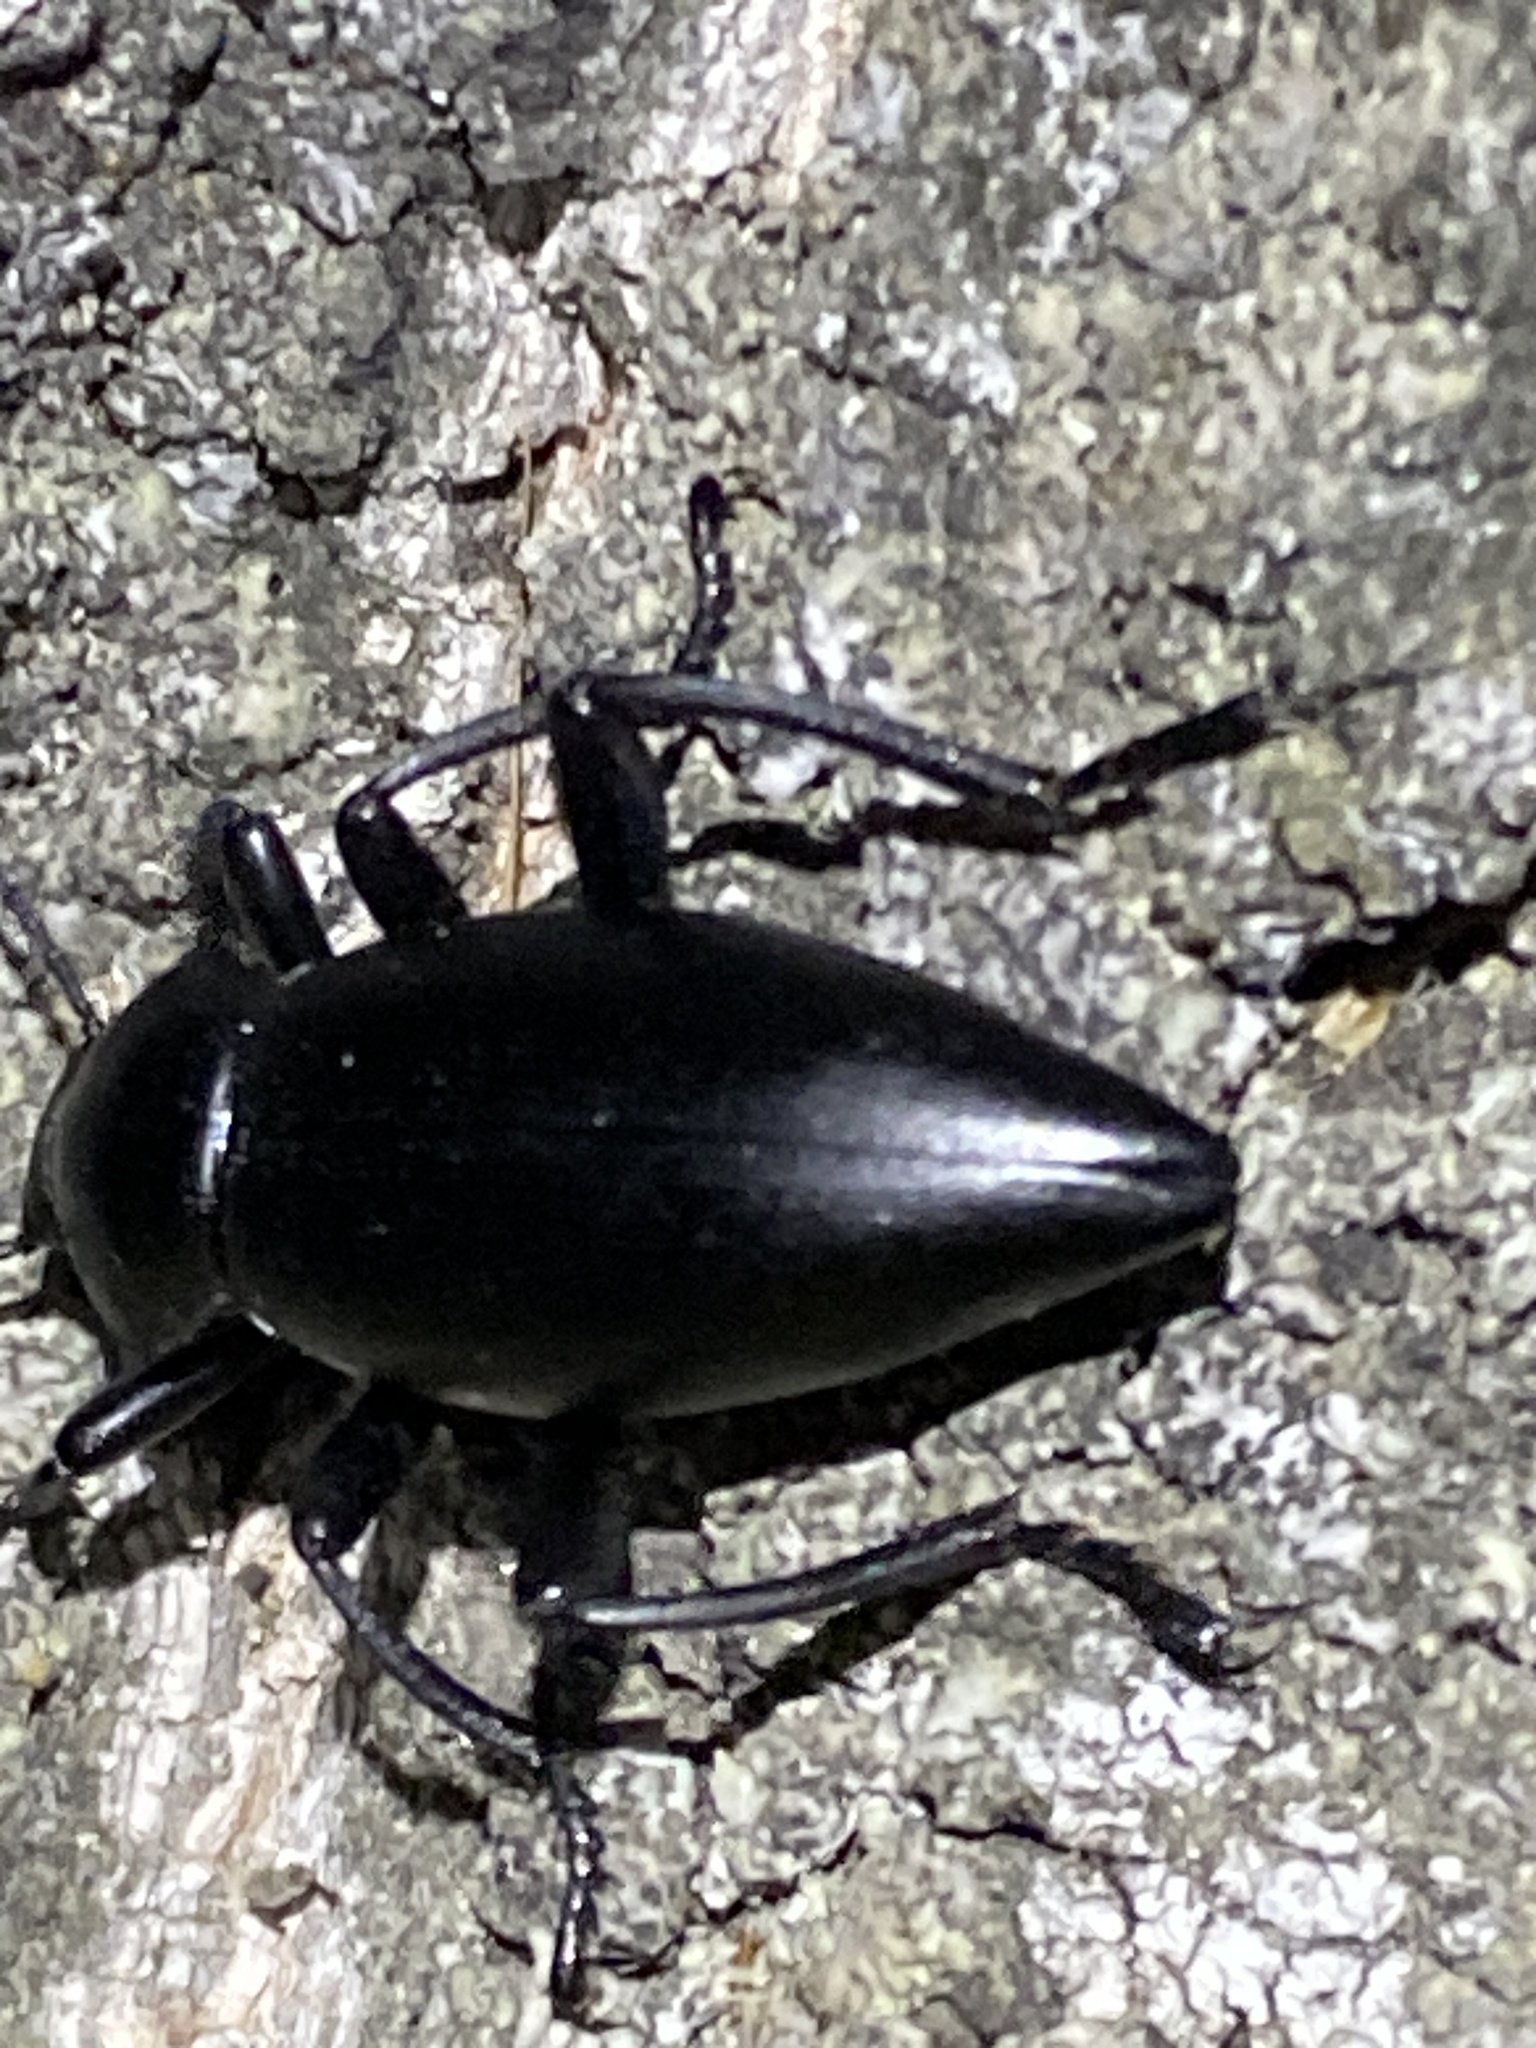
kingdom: Animalia
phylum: Arthropoda
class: Insecta
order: Coleoptera
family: Tenebrionidae
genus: Eleodes
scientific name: Eleodes dentipes
